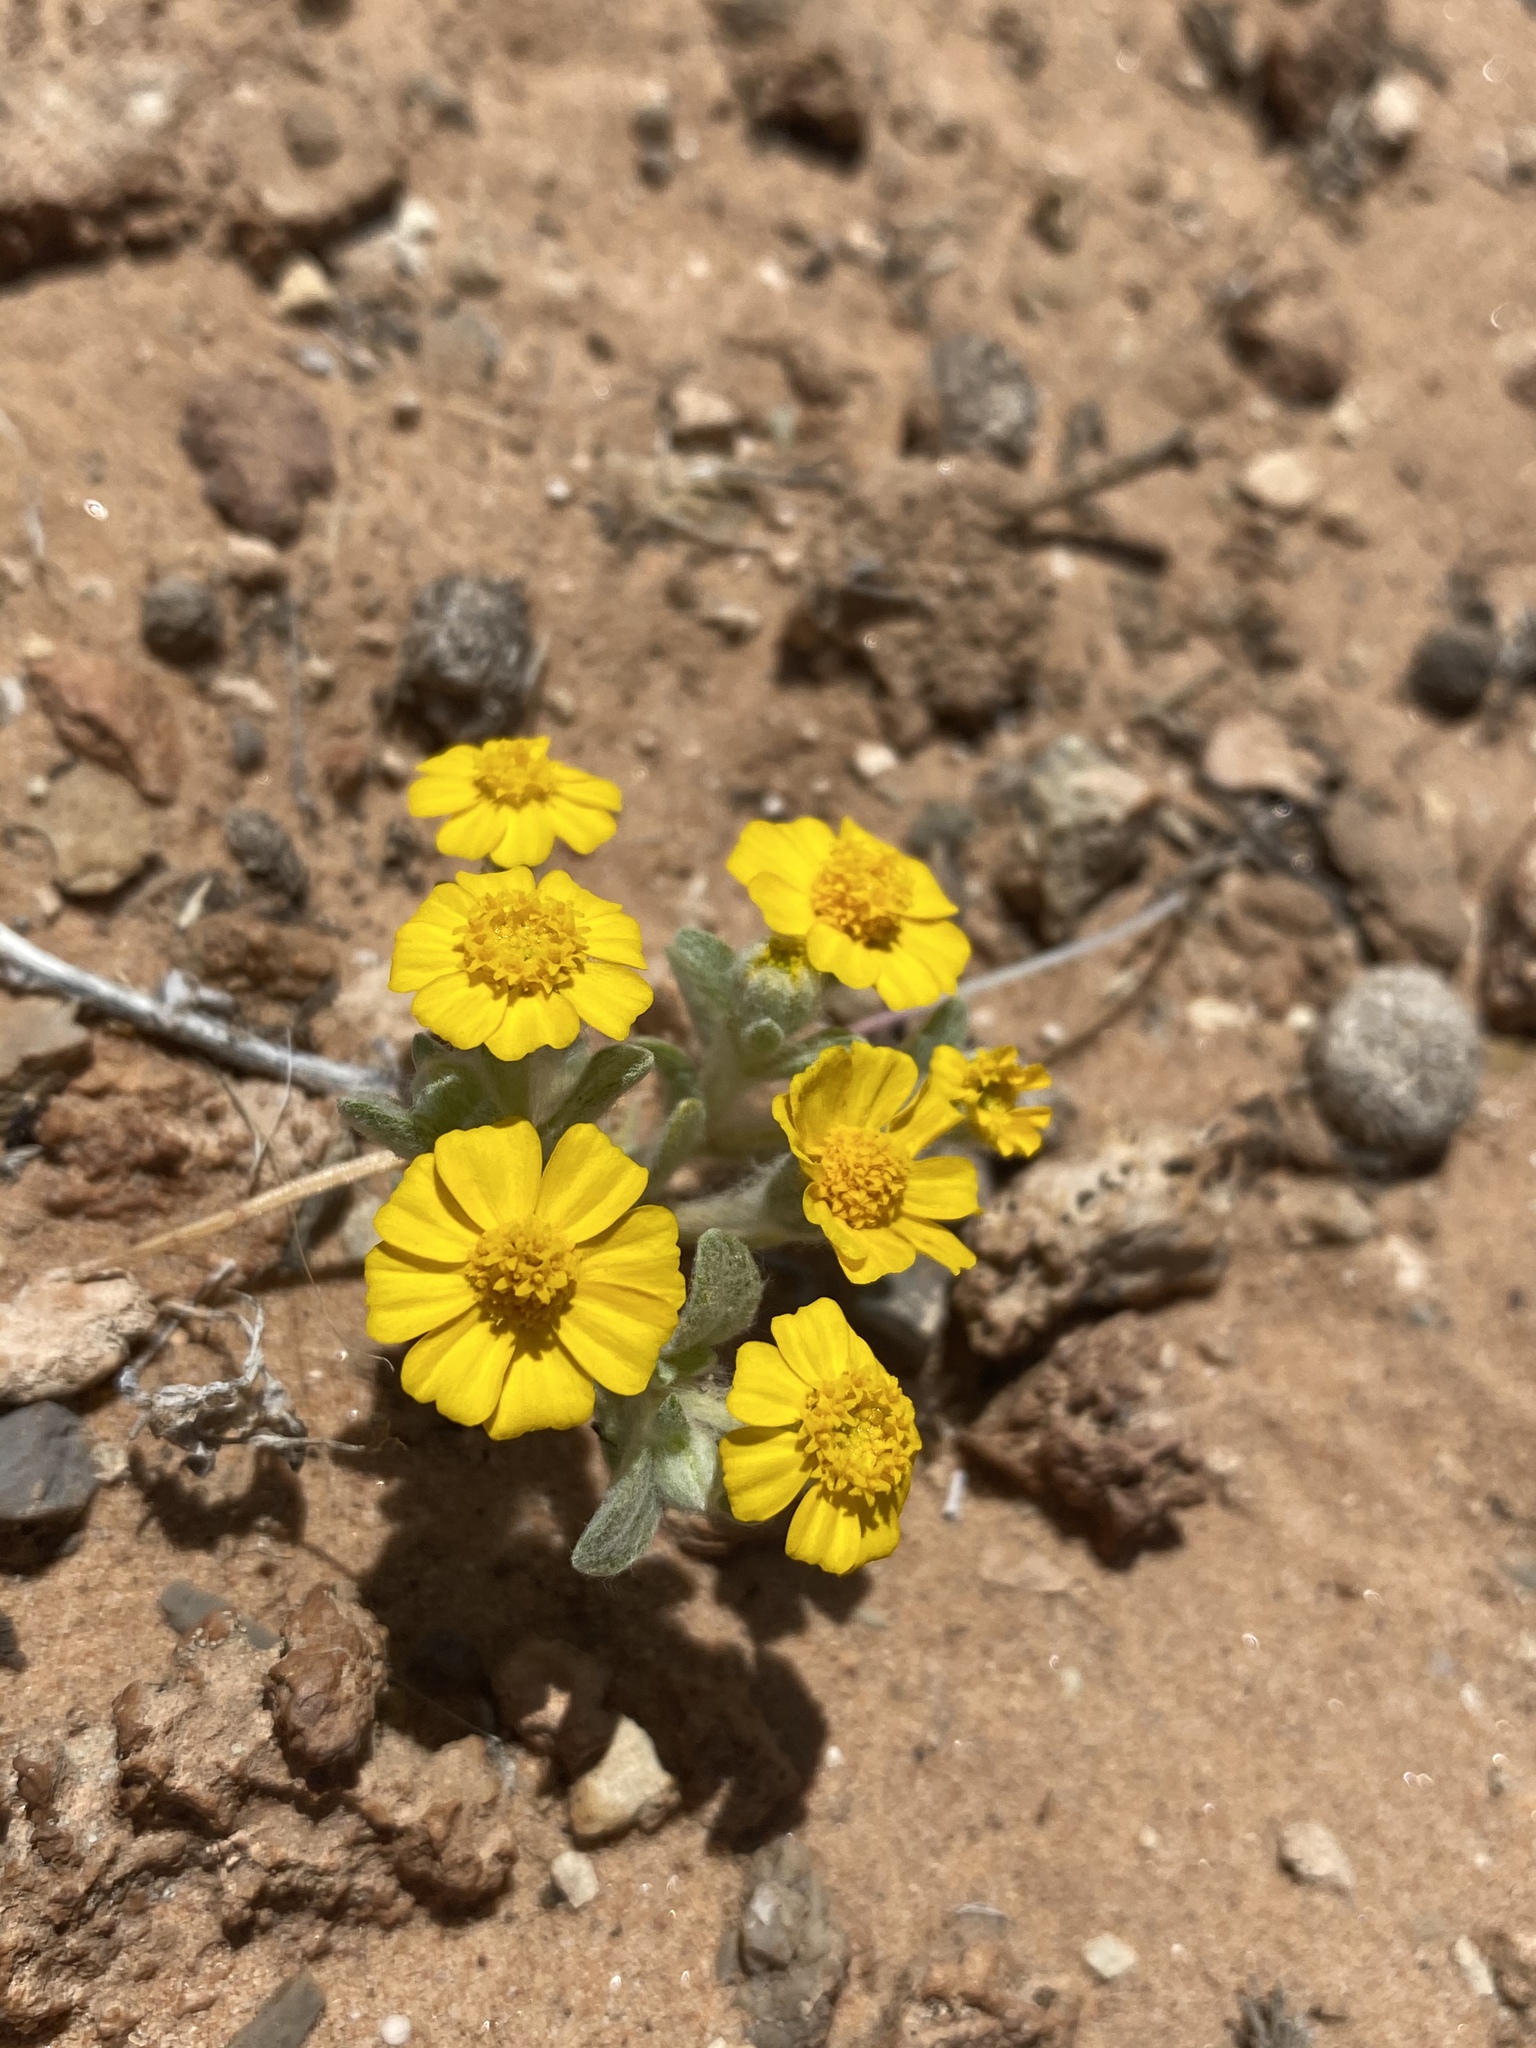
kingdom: Plantae
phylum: Tracheophyta
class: Magnoliopsida
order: Asterales
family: Asteraceae
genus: Eriophyllum
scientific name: Eriophyllum wallacei
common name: Wallace's woolly daisy
